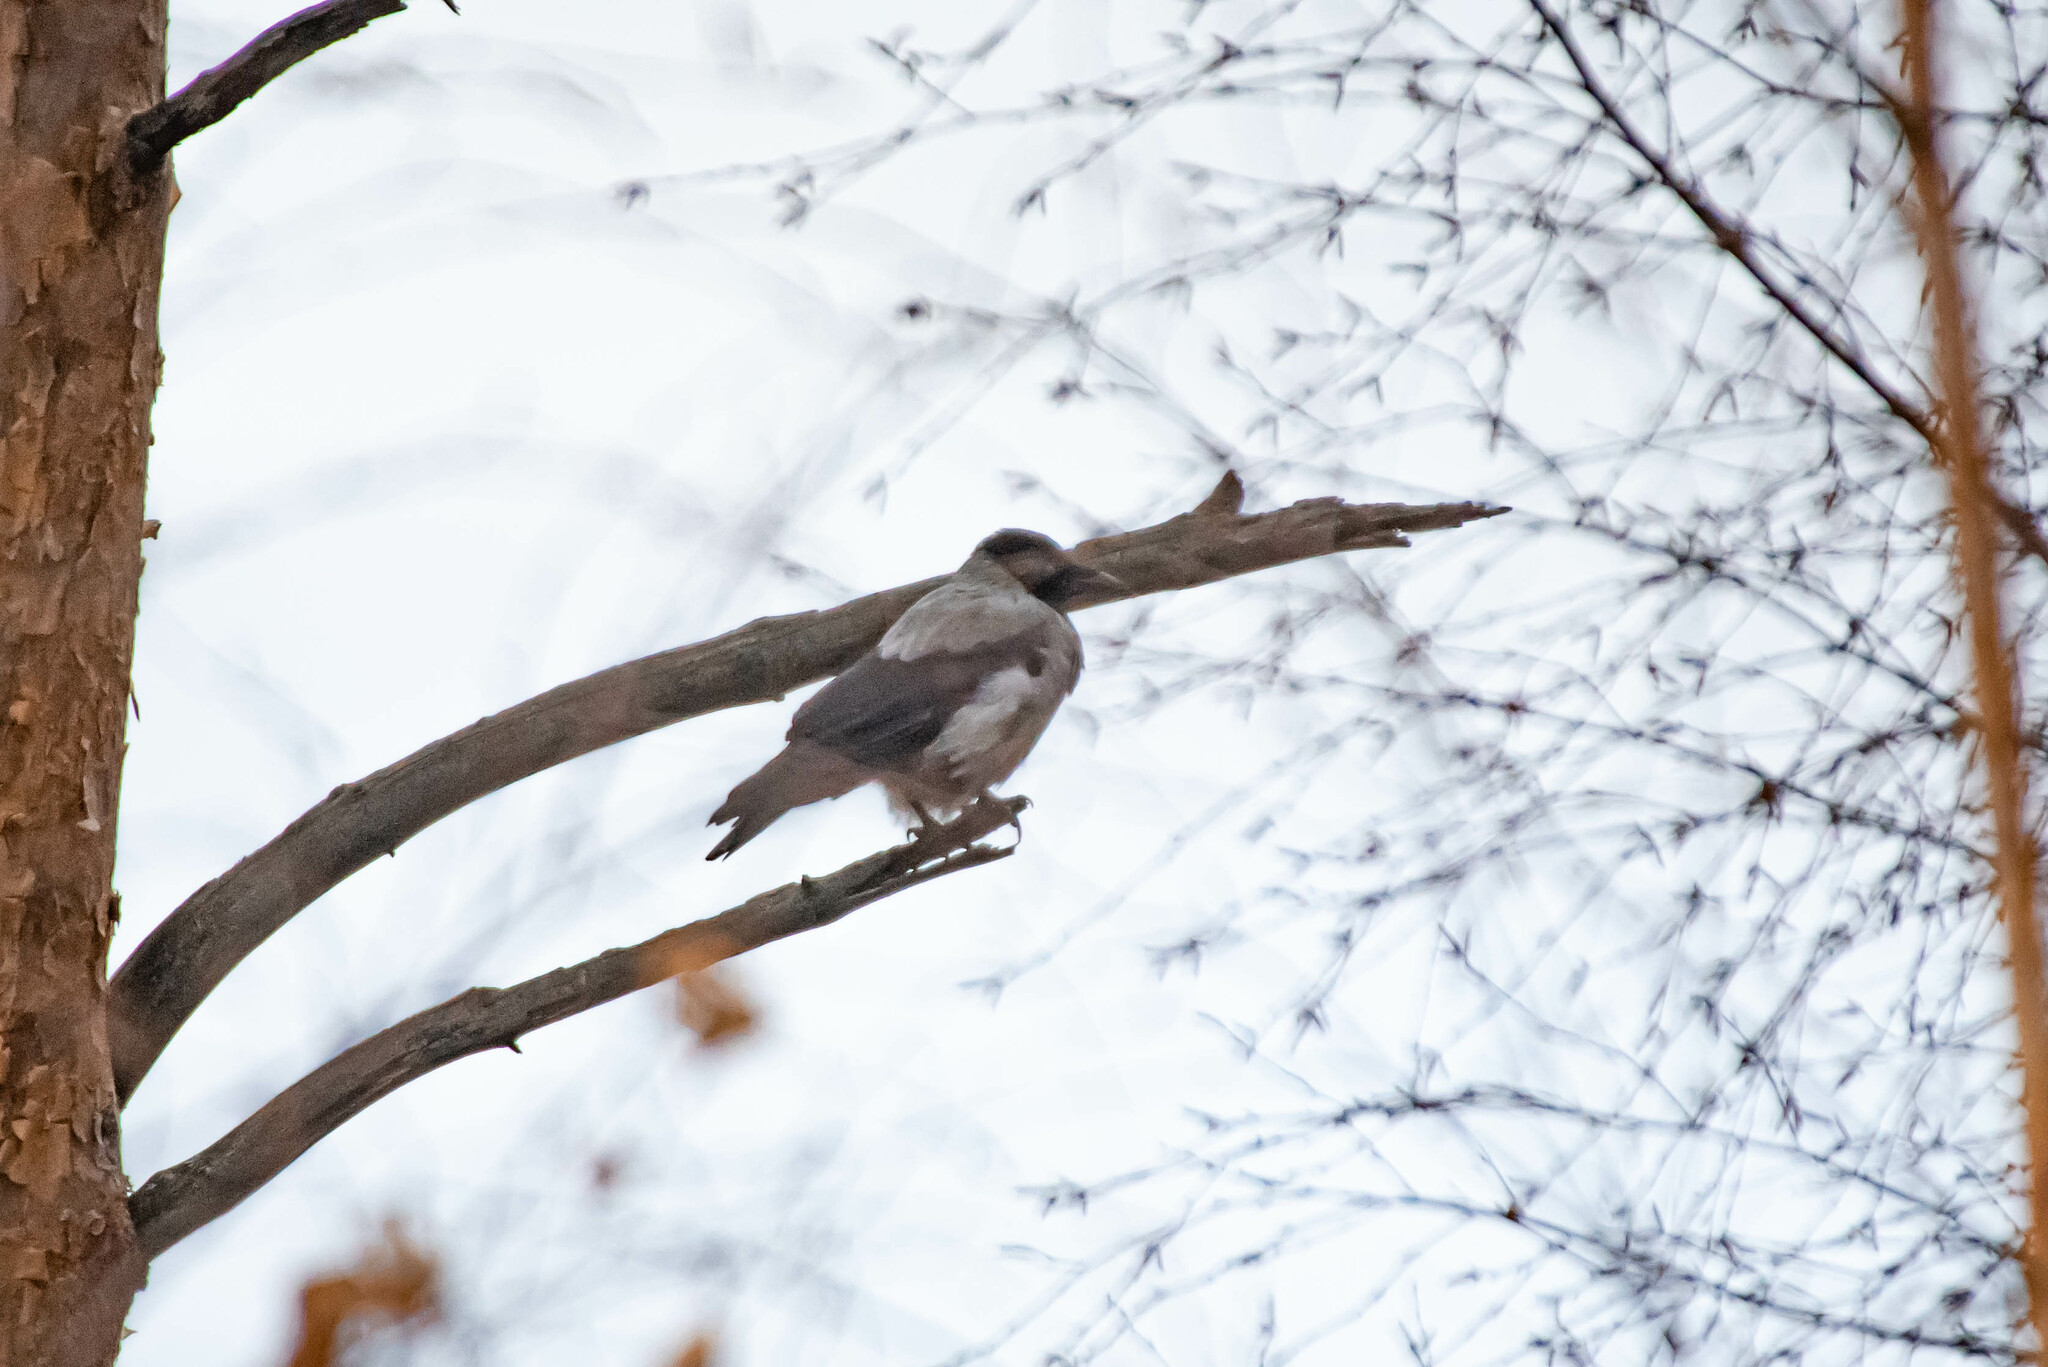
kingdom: Animalia
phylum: Chordata
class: Aves
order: Passeriformes
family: Corvidae
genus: Corvus
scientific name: Corvus cornix
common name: Hooded crow
